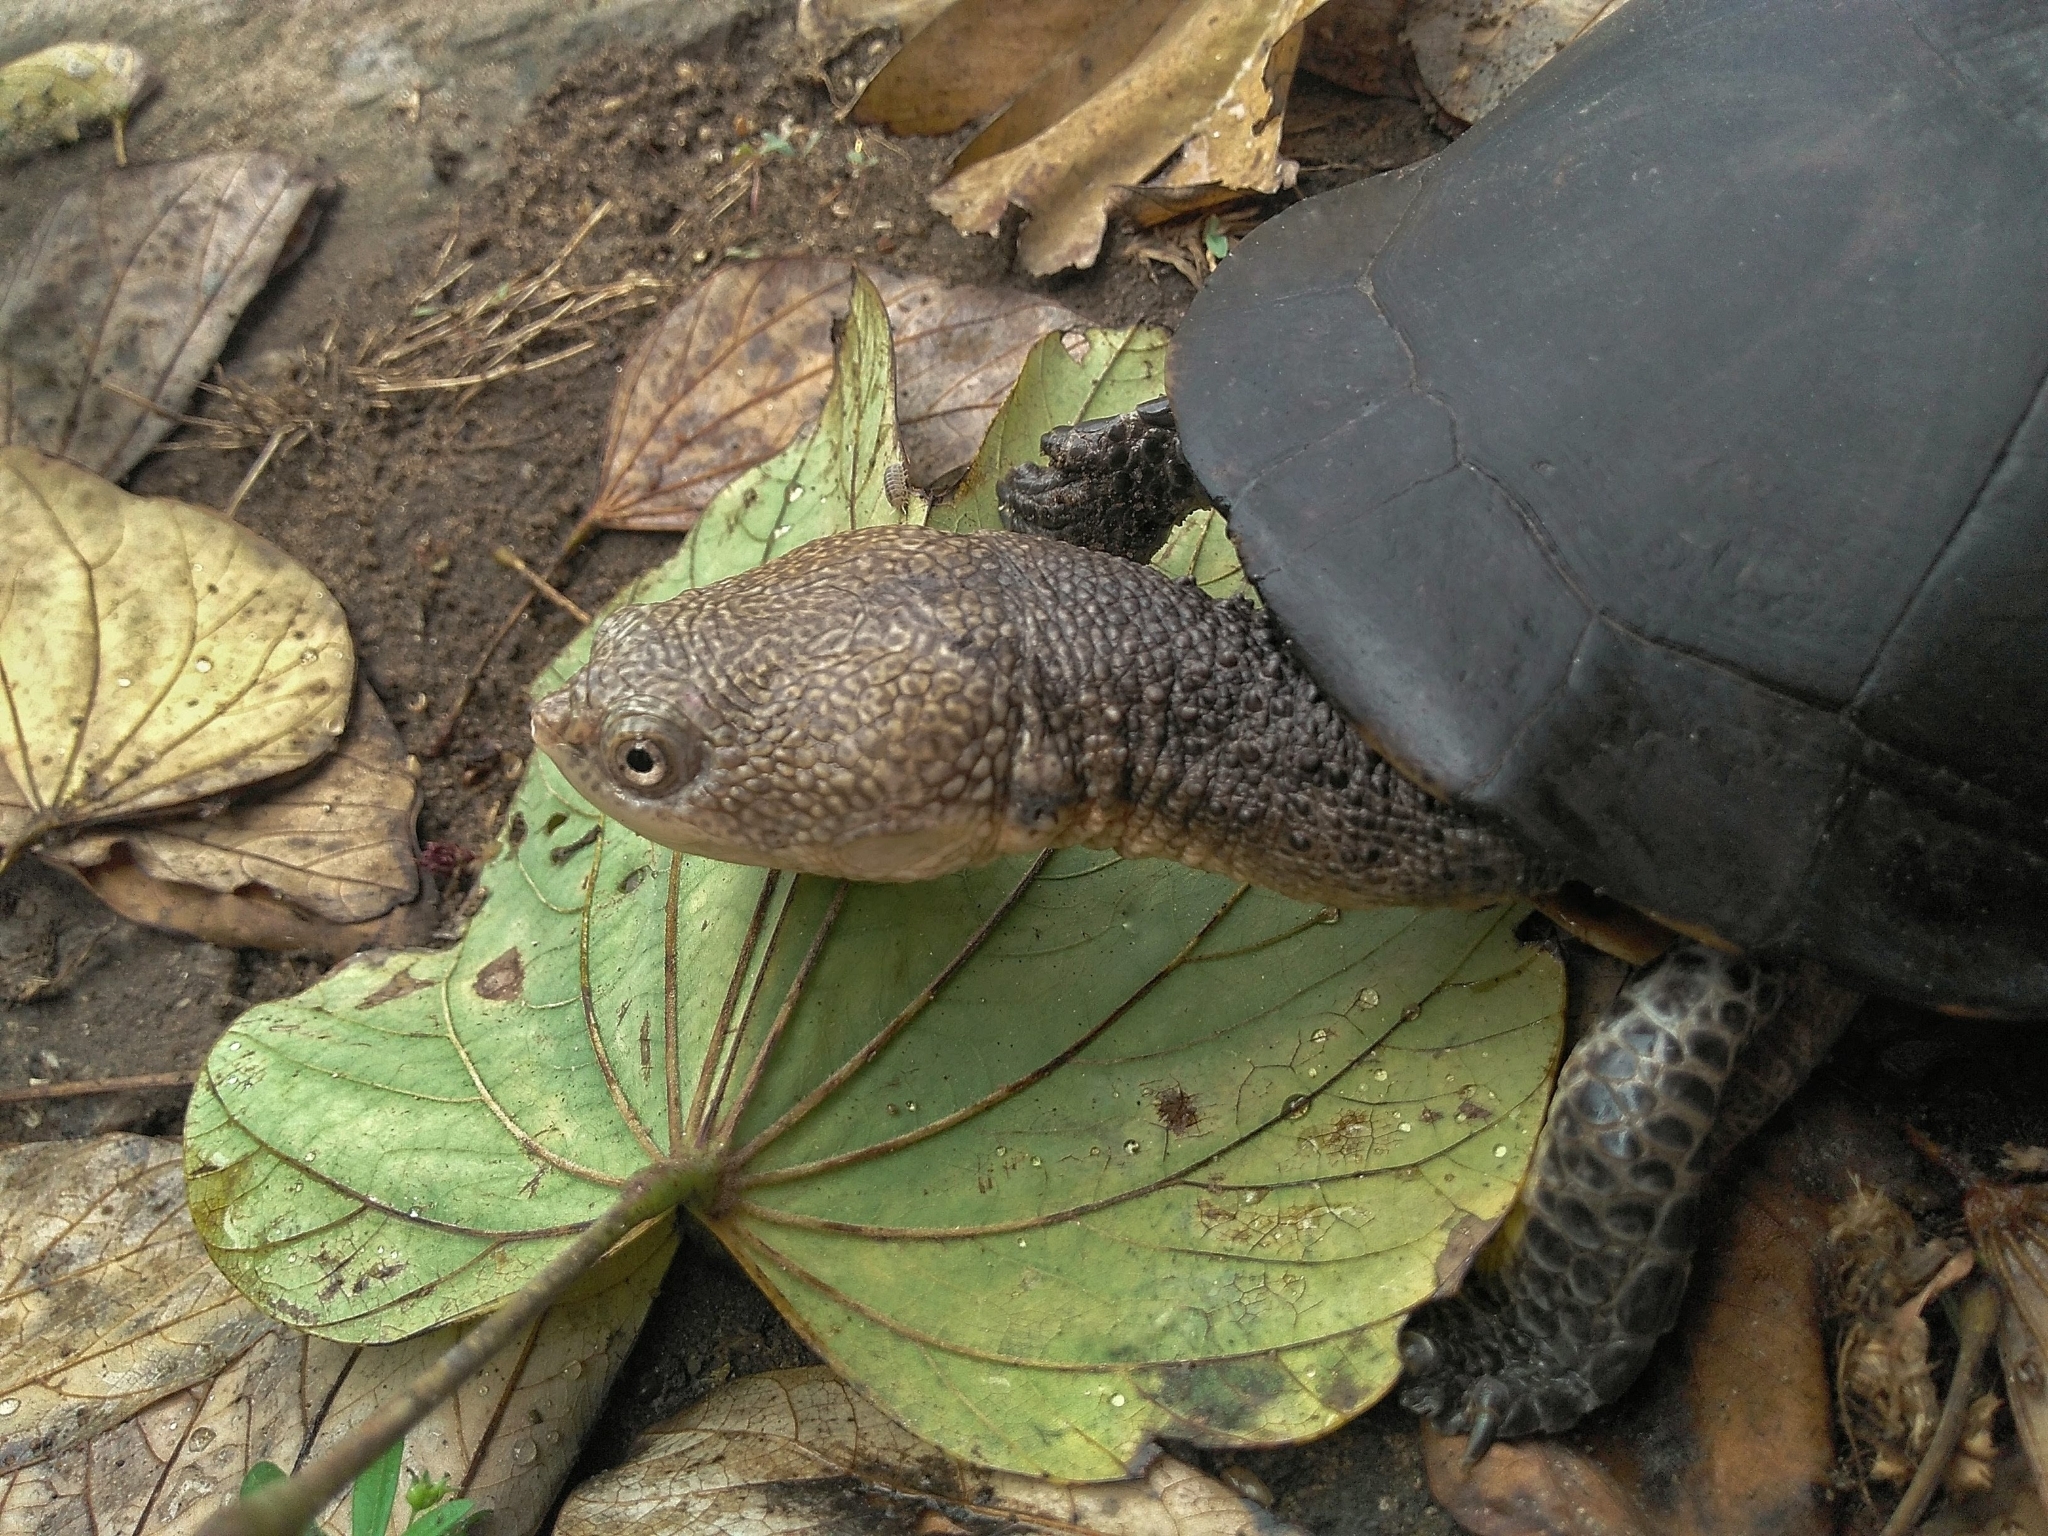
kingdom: Animalia
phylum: Chordata
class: Testudines
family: Chelidae
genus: Acanthochelys
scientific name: Acanthochelys radiolata
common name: Brazilian radiolated swamp turtle
